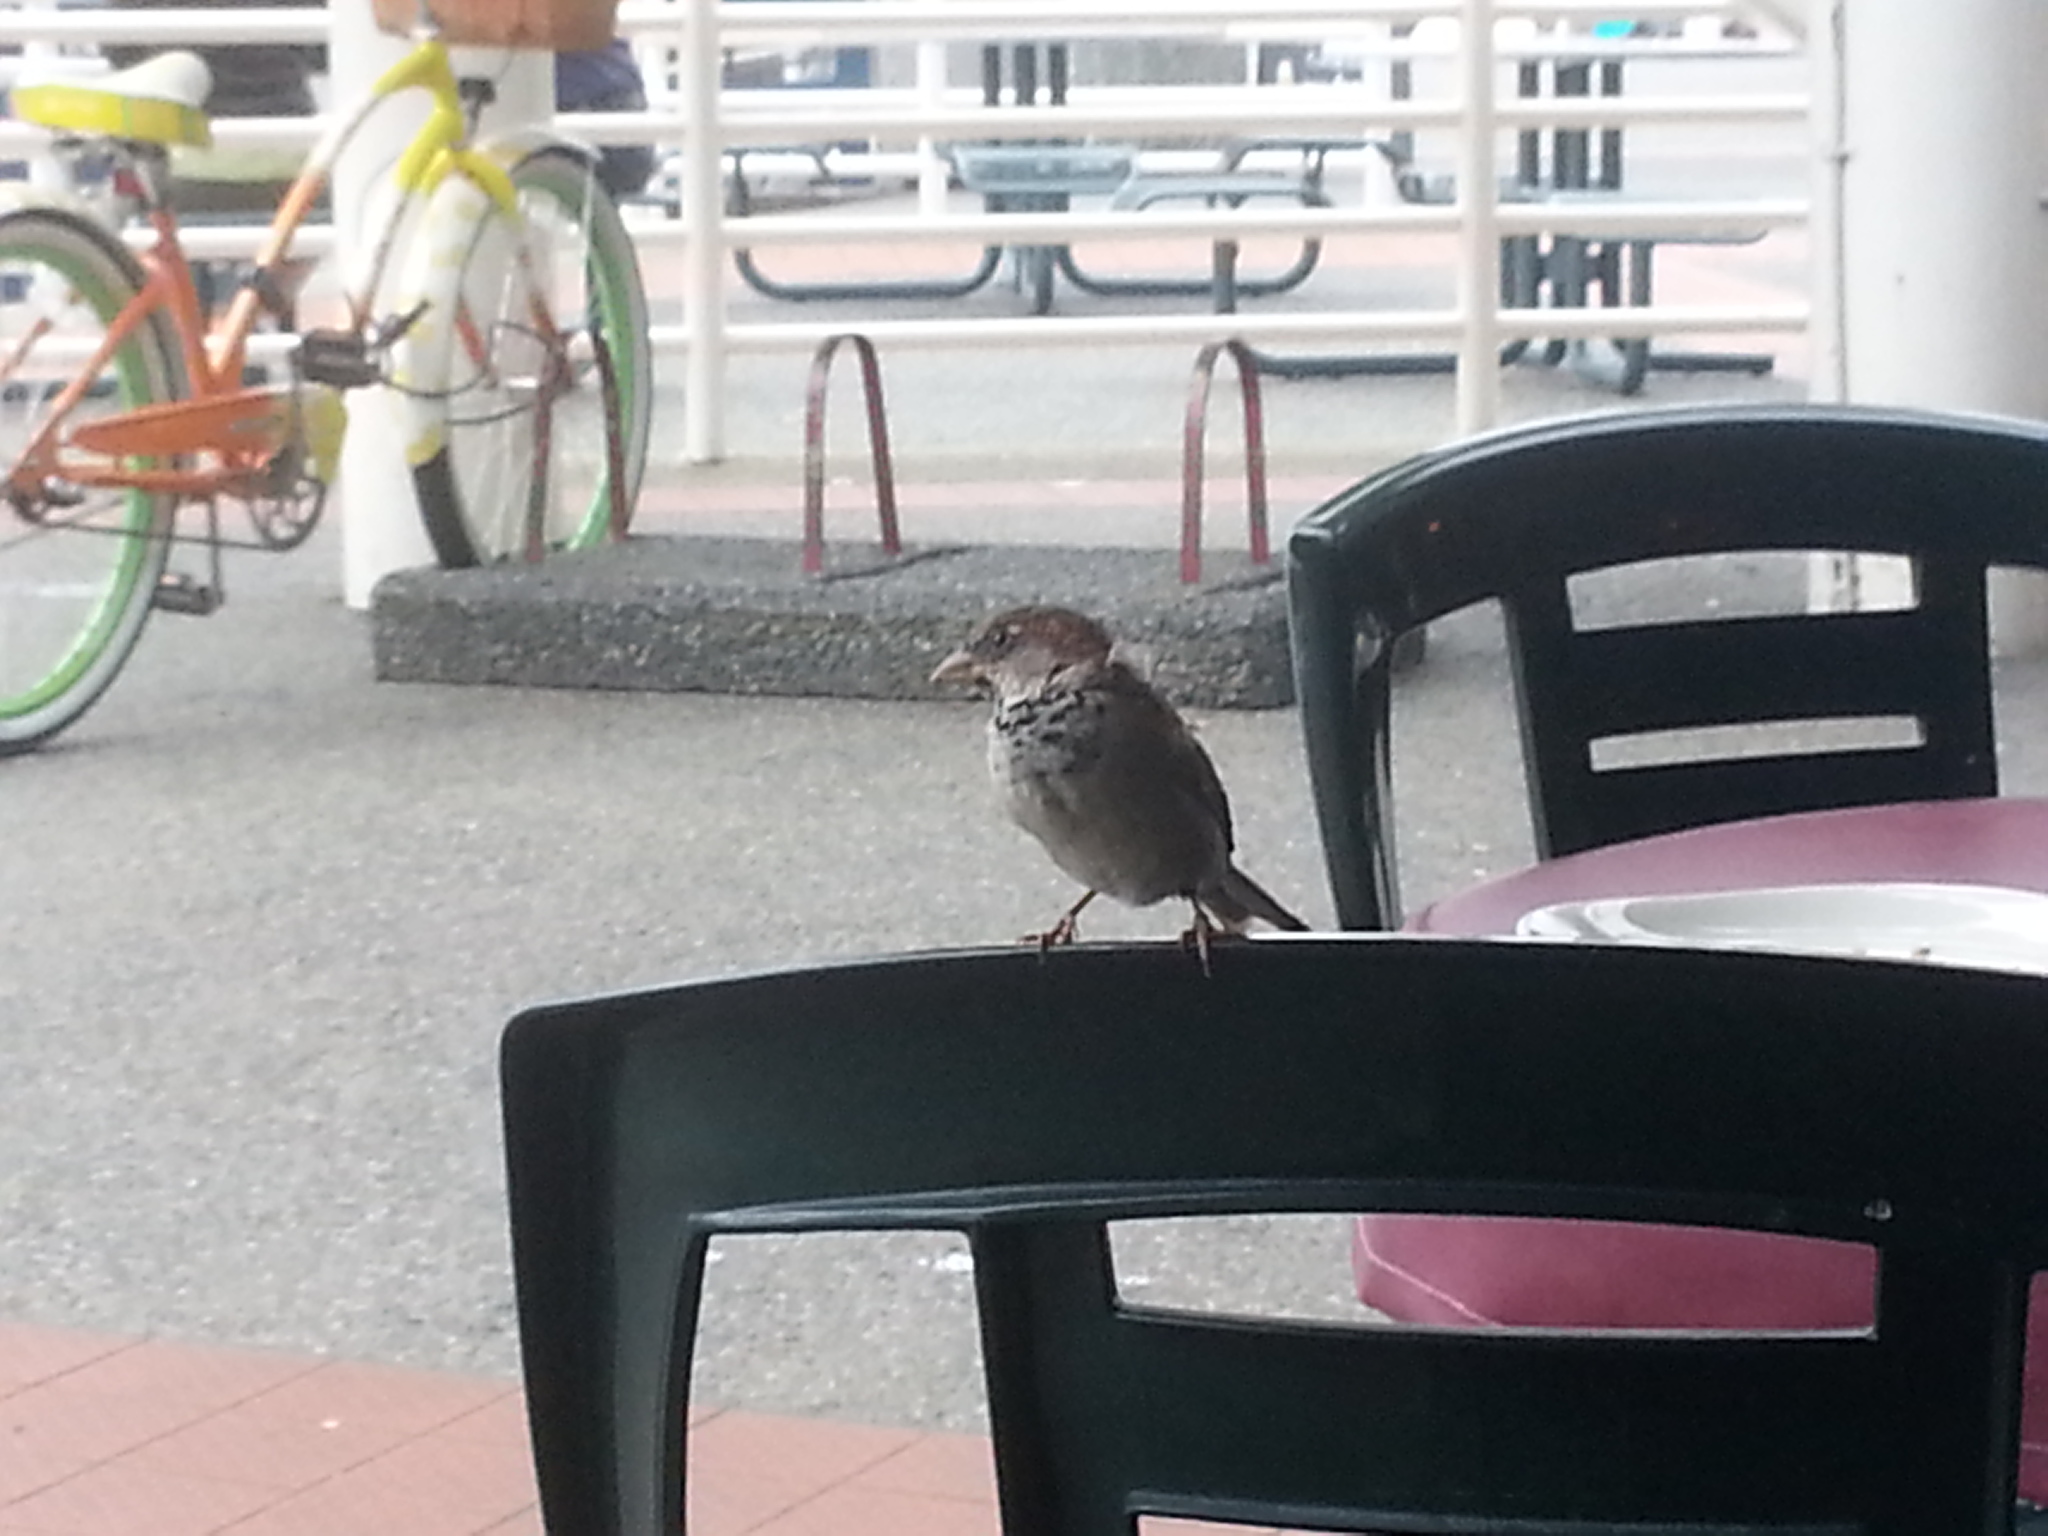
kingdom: Animalia
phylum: Chordata
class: Aves
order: Passeriformes
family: Passeridae
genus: Passer
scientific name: Passer domesticus
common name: House sparrow
